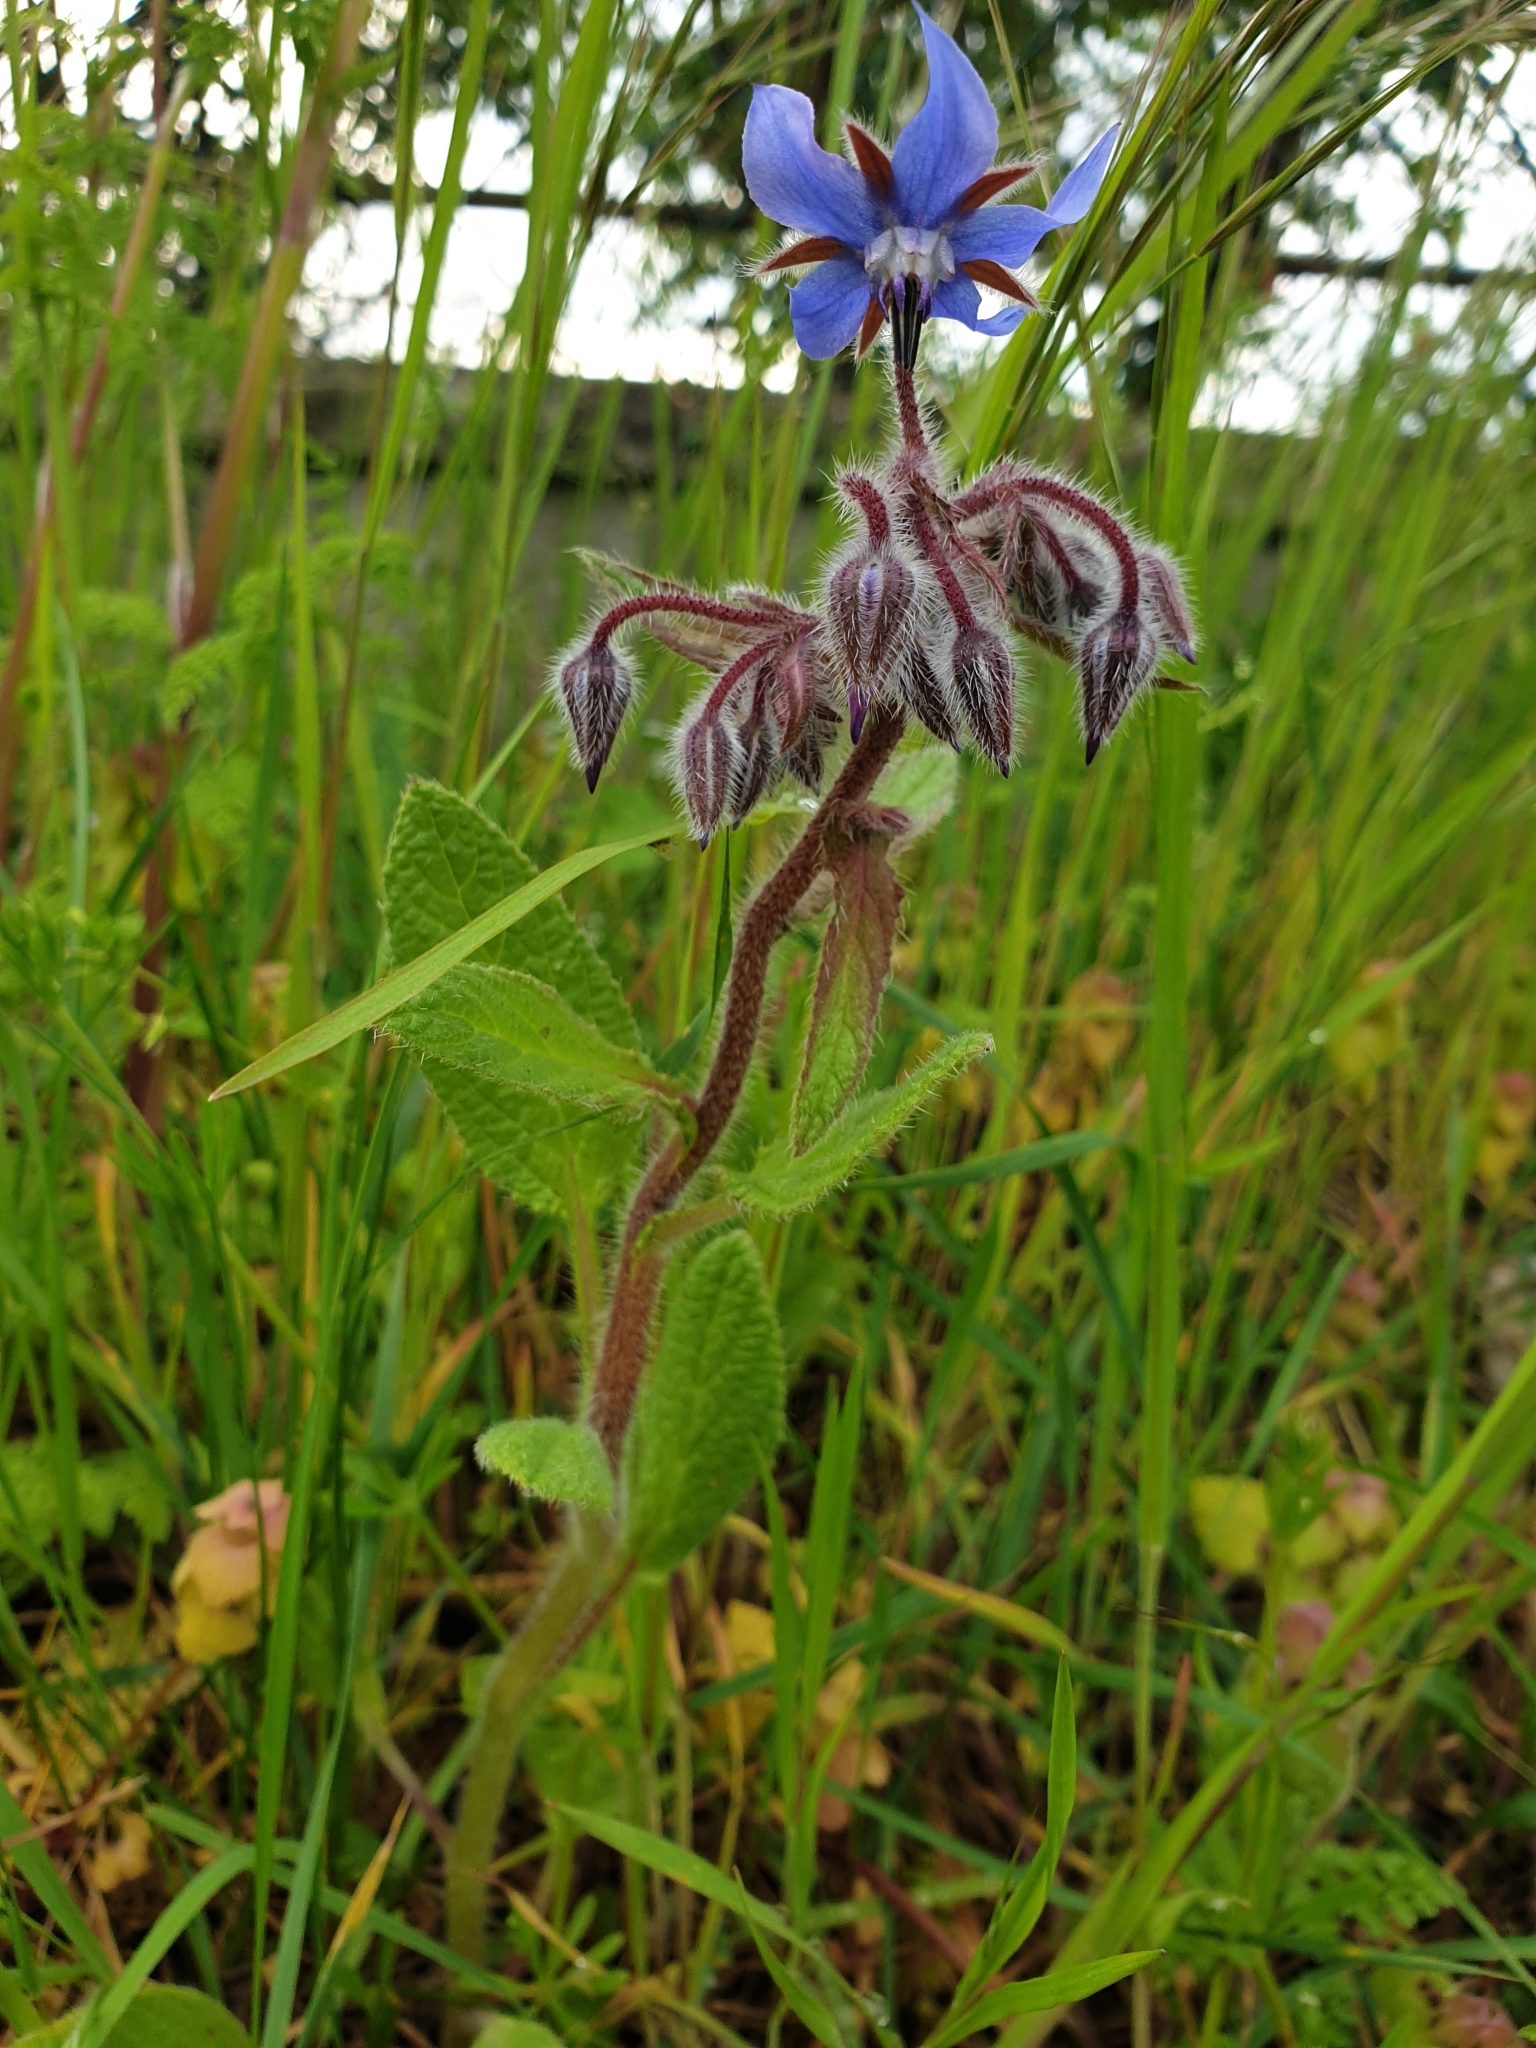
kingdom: Plantae
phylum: Tracheophyta
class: Magnoliopsida
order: Boraginales
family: Boraginaceae
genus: Borago
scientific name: Borago officinalis
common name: Borage
